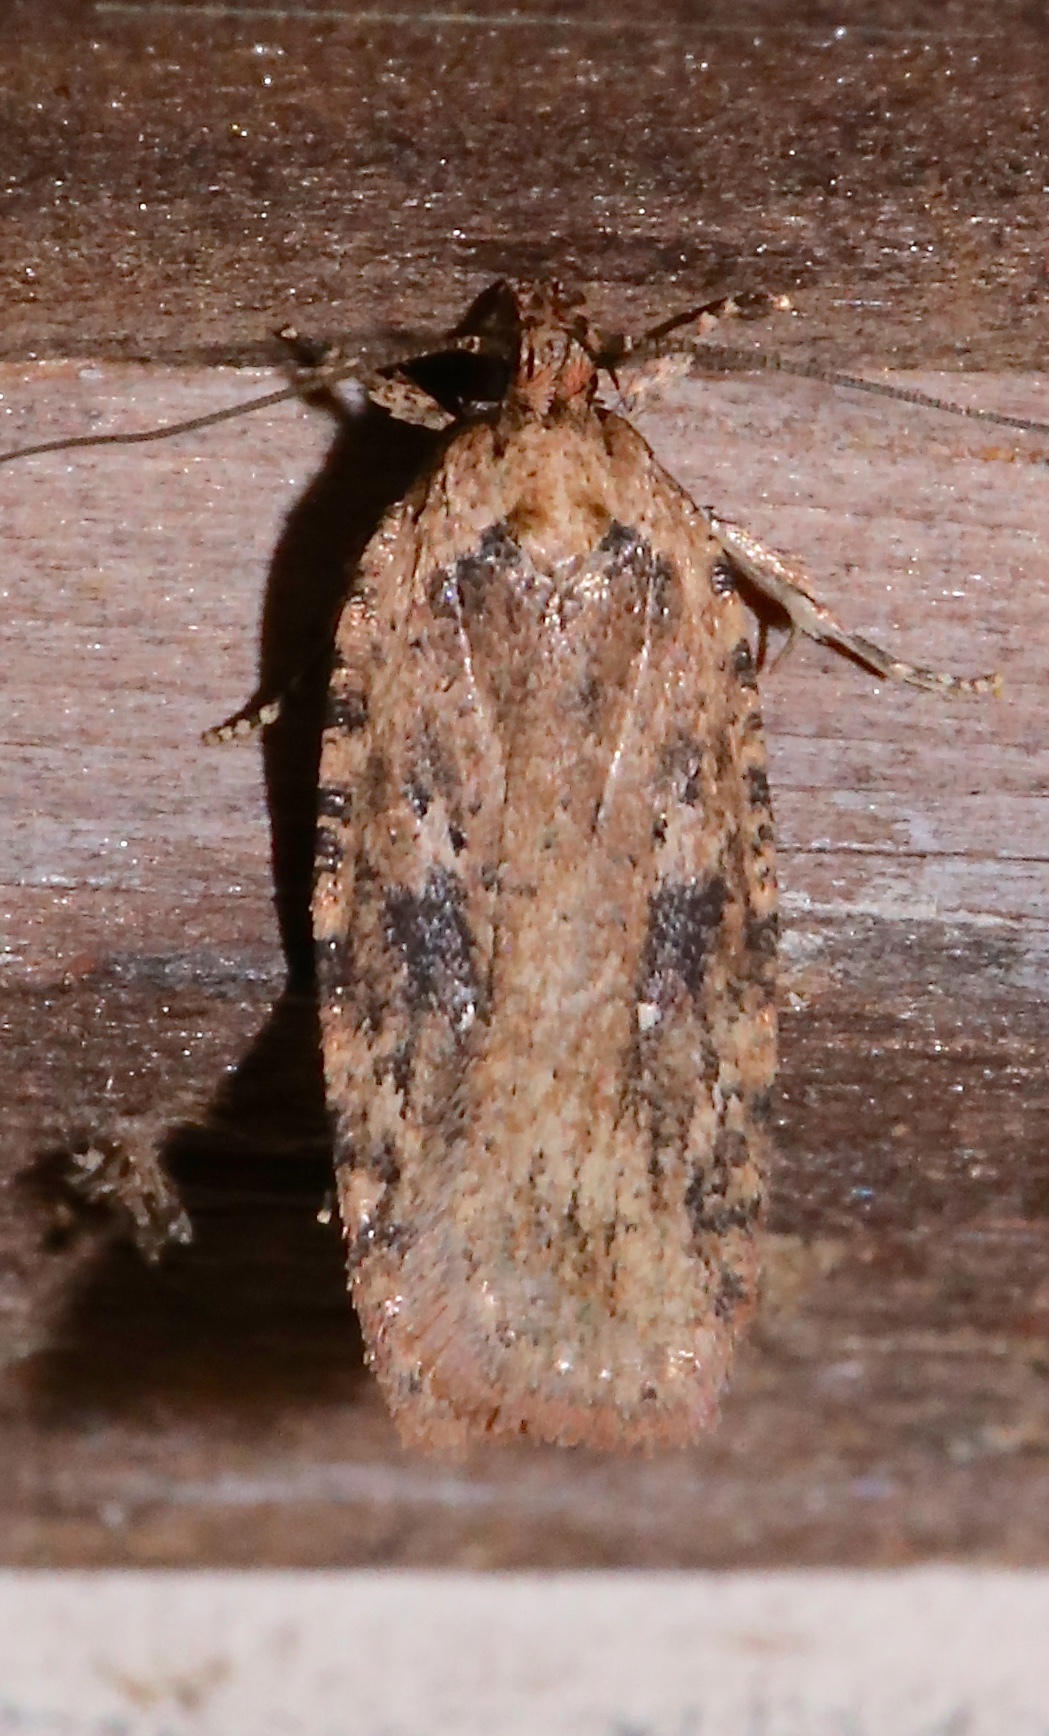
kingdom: Animalia
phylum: Arthropoda
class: Insecta
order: Lepidoptera
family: Depressariidae
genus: Agonopterix
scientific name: Agonopterix pulvipennella
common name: Goldenrod leafffolder
